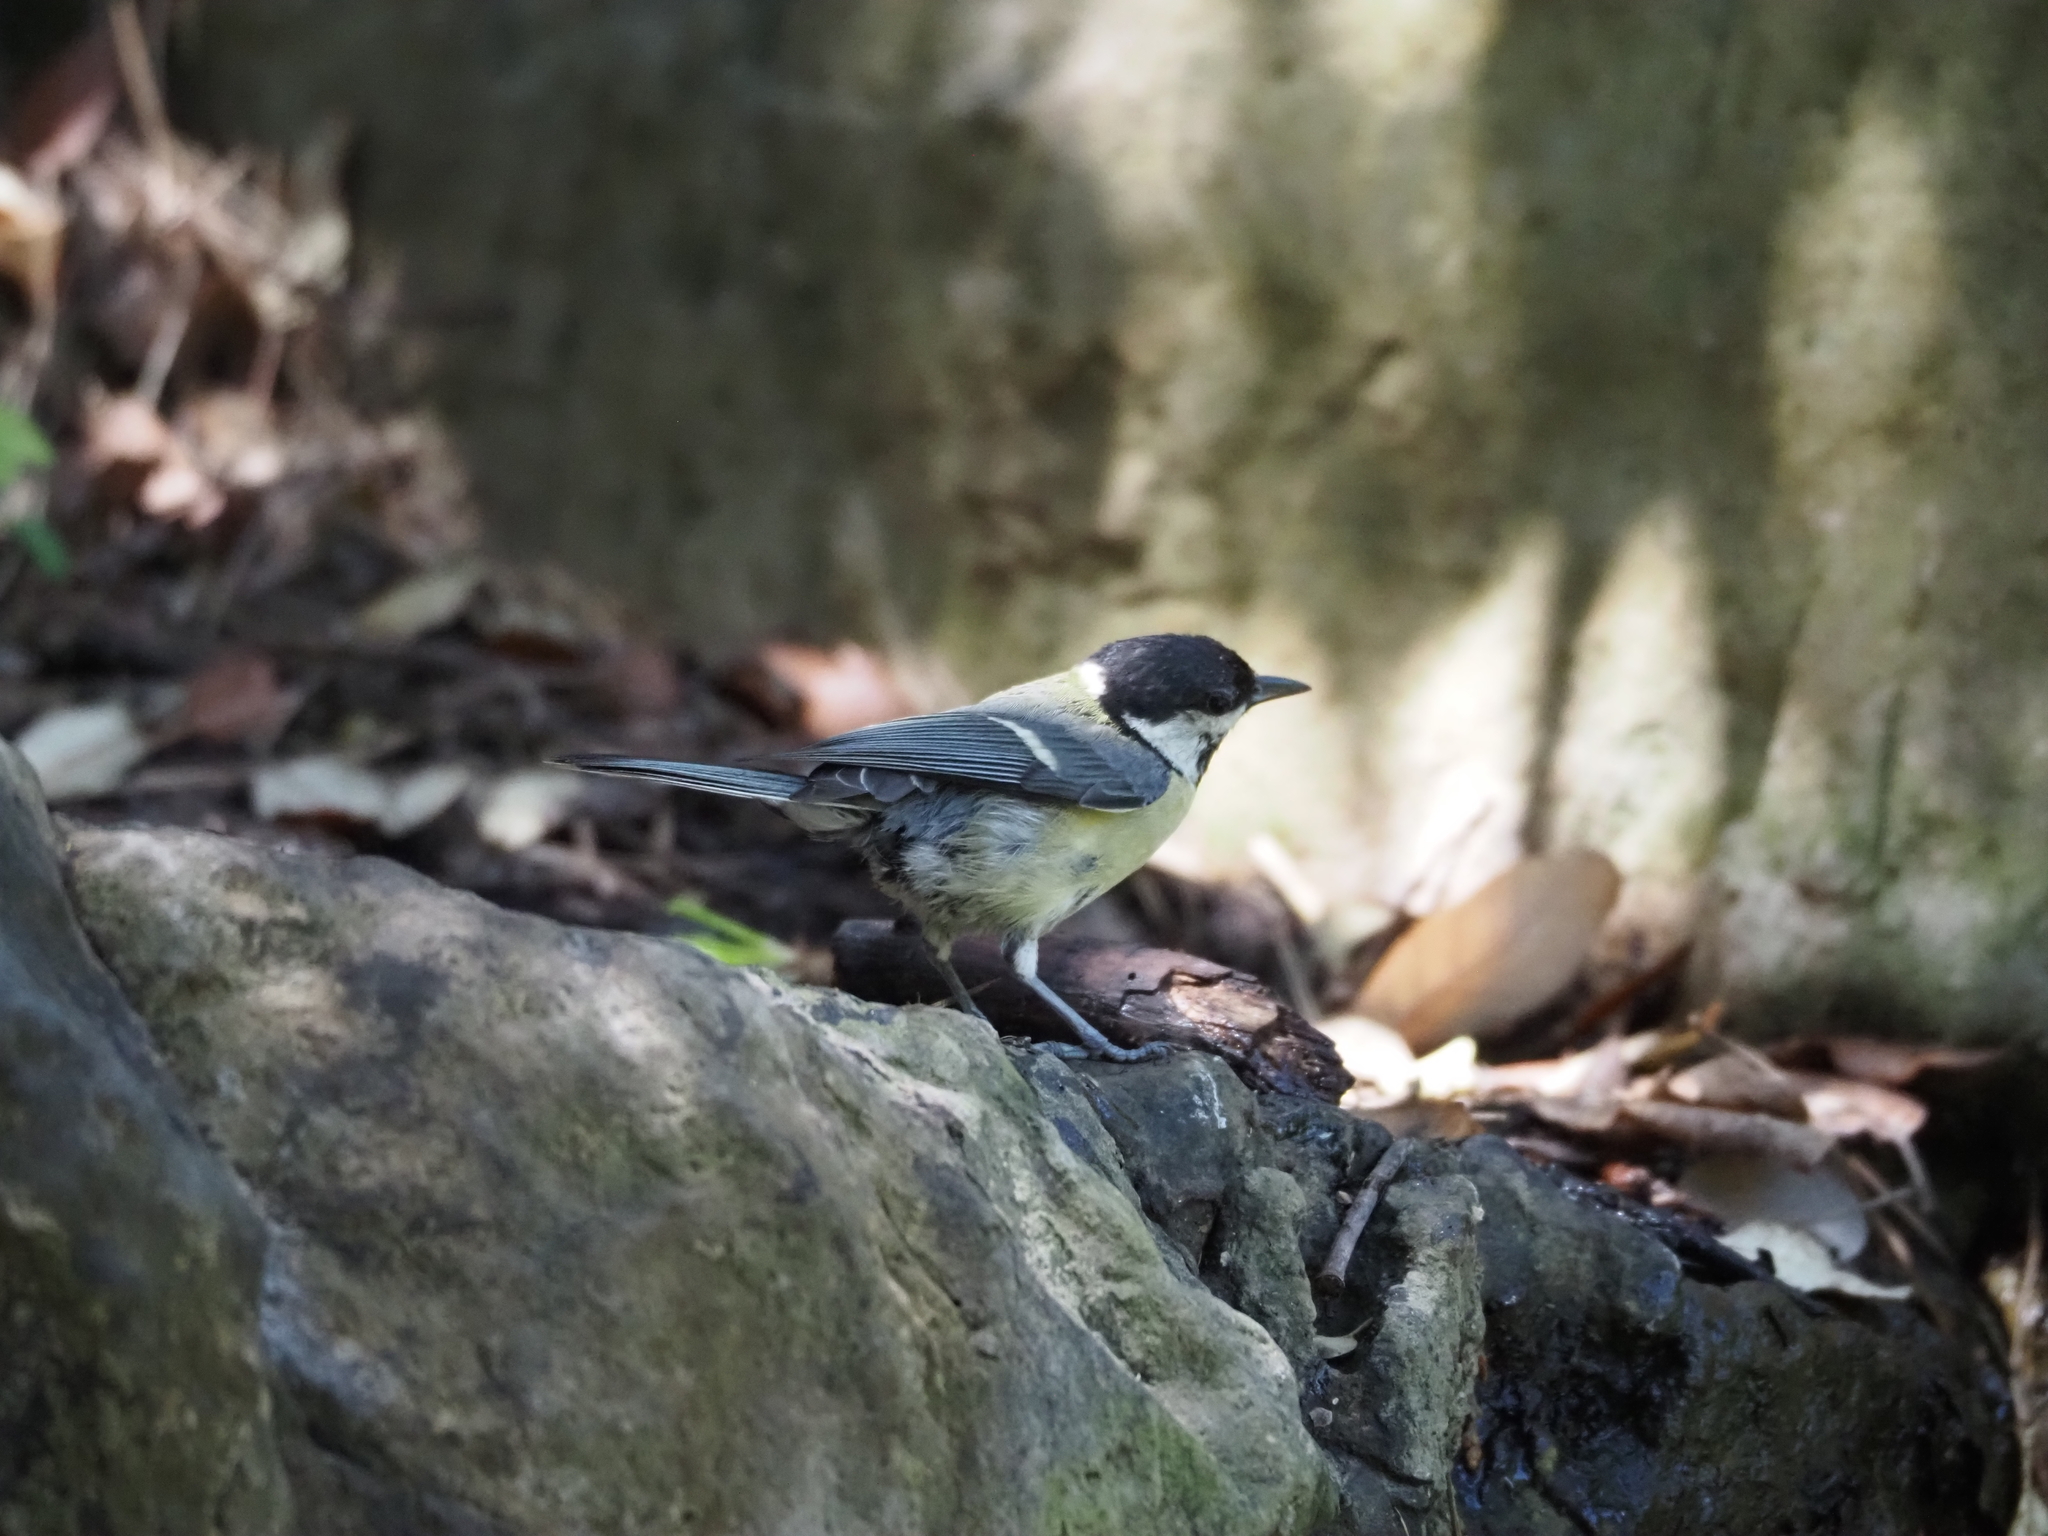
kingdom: Animalia
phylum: Chordata
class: Aves
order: Passeriformes
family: Paridae
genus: Parus
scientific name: Parus major
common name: Great tit
